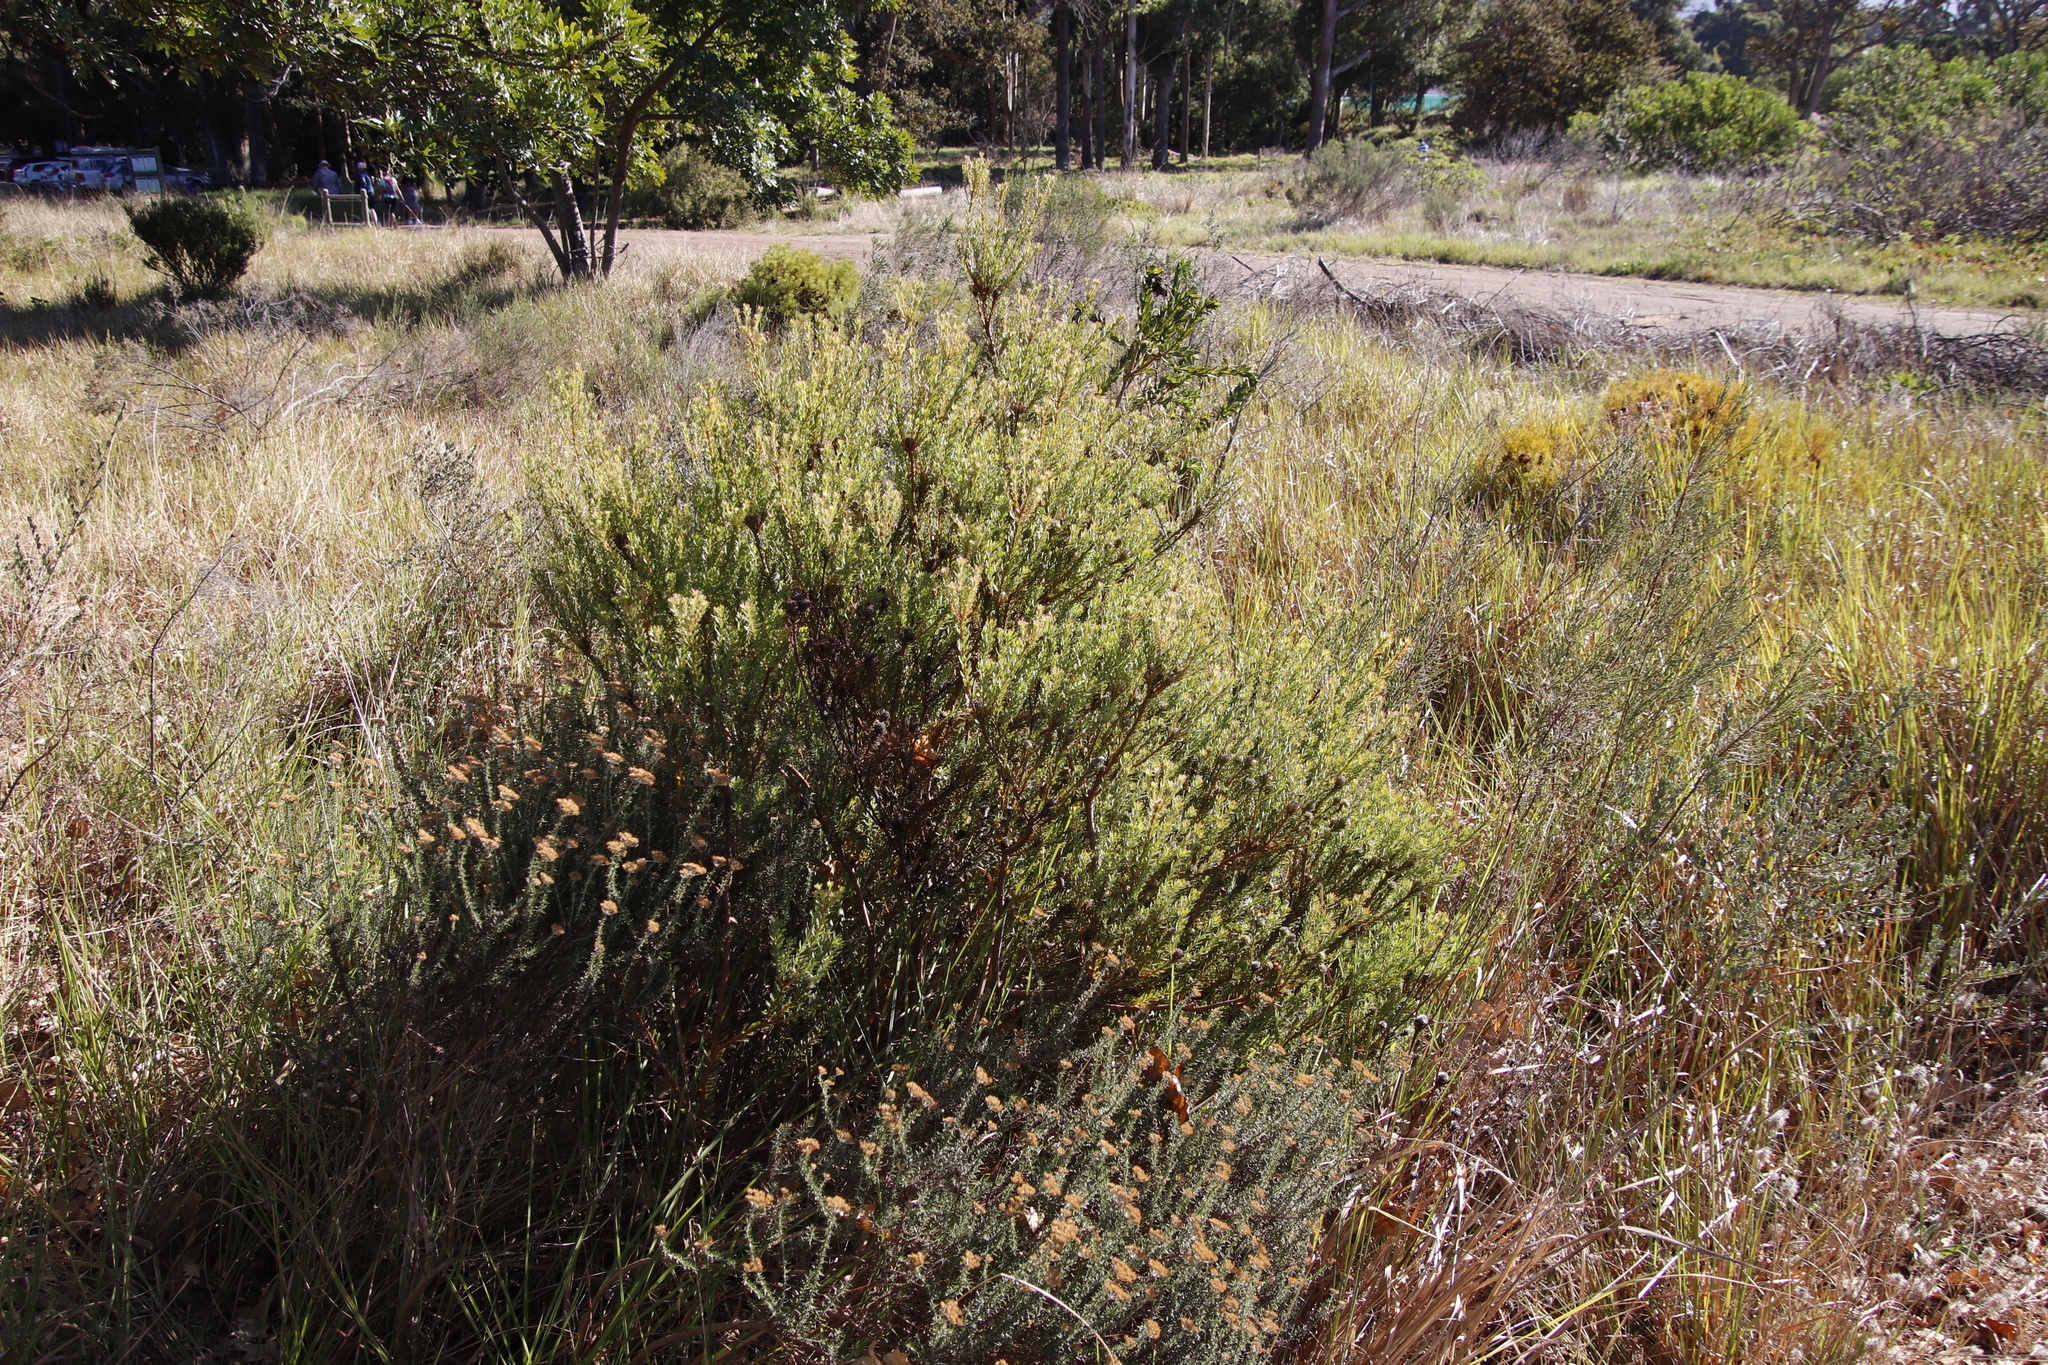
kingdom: Plantae
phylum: Tracheophyta
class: Magnoliopsida
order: Proteales
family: Proteaceae
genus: Leucadendron
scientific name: Leucadendron levisanus
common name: Cape flats conebush
